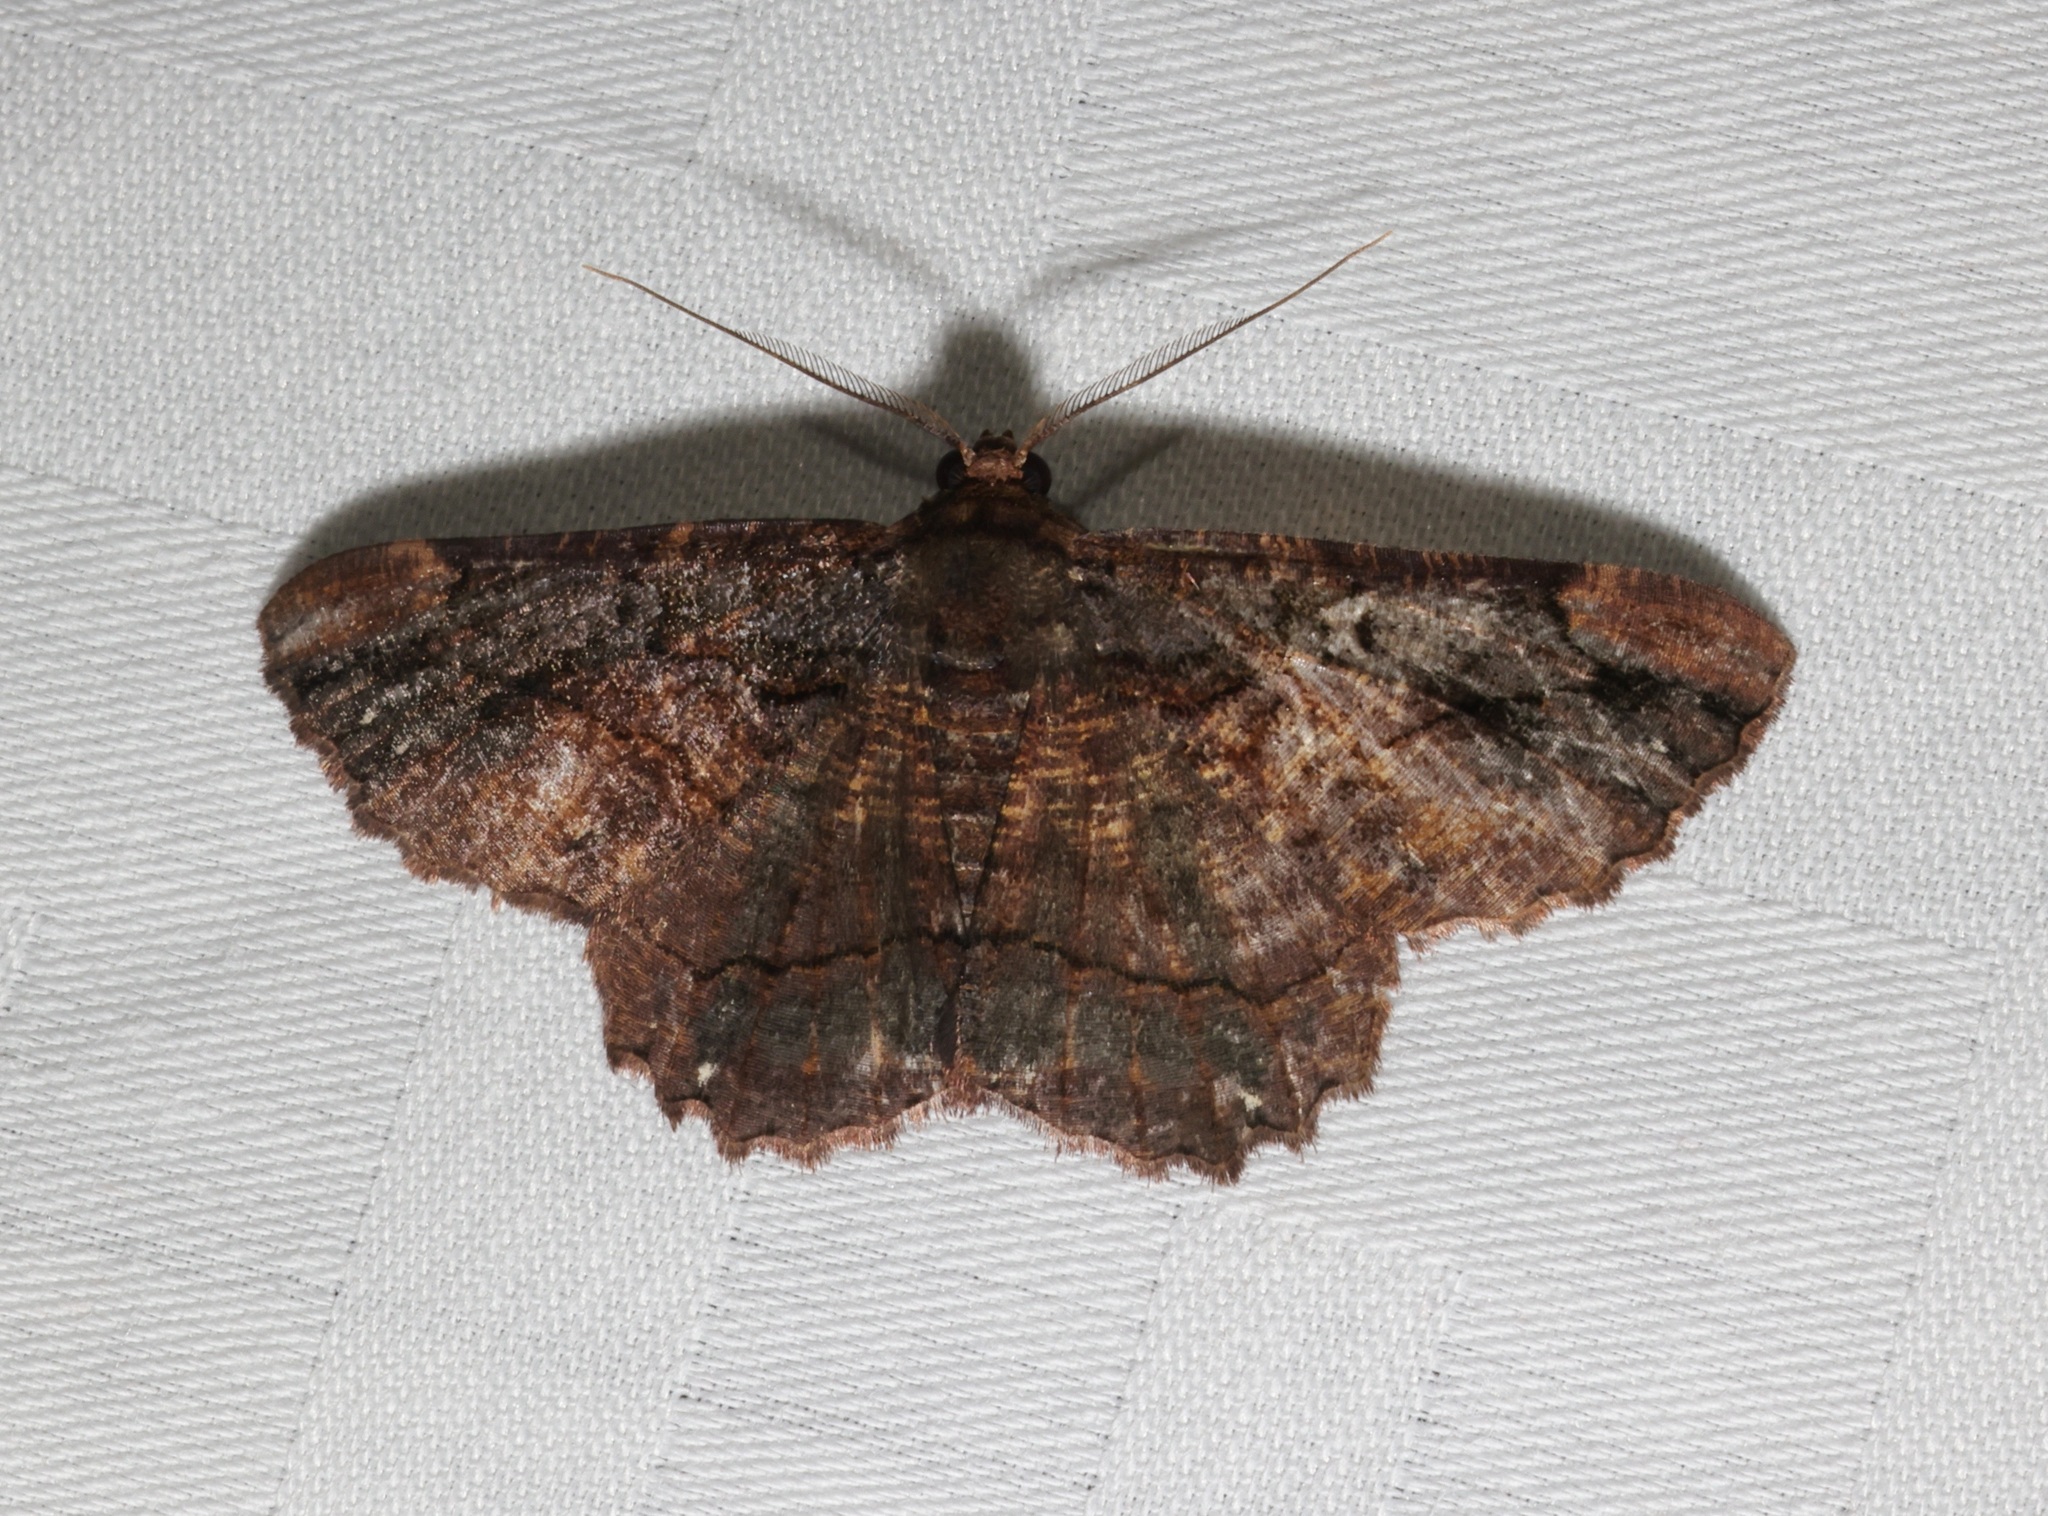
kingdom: Animalia
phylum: Arthropoda
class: Insecta
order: Lepidoptera
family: Geometridae
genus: Dasyboarmia
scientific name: Dasyboarmia subpilosa
